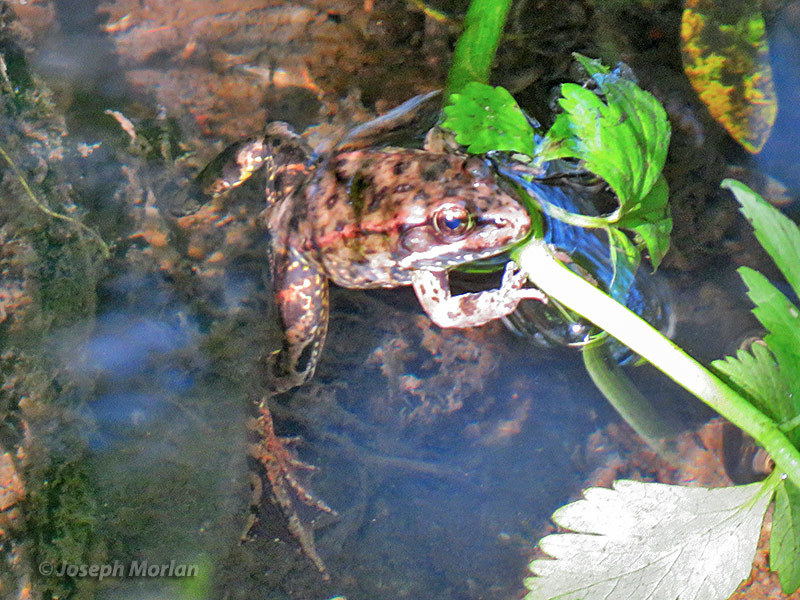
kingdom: Animalia
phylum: Chordata
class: Amphibia
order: Anura
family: Ranidae
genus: Rana
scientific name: Rana draytonii
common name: California red-legged frog
